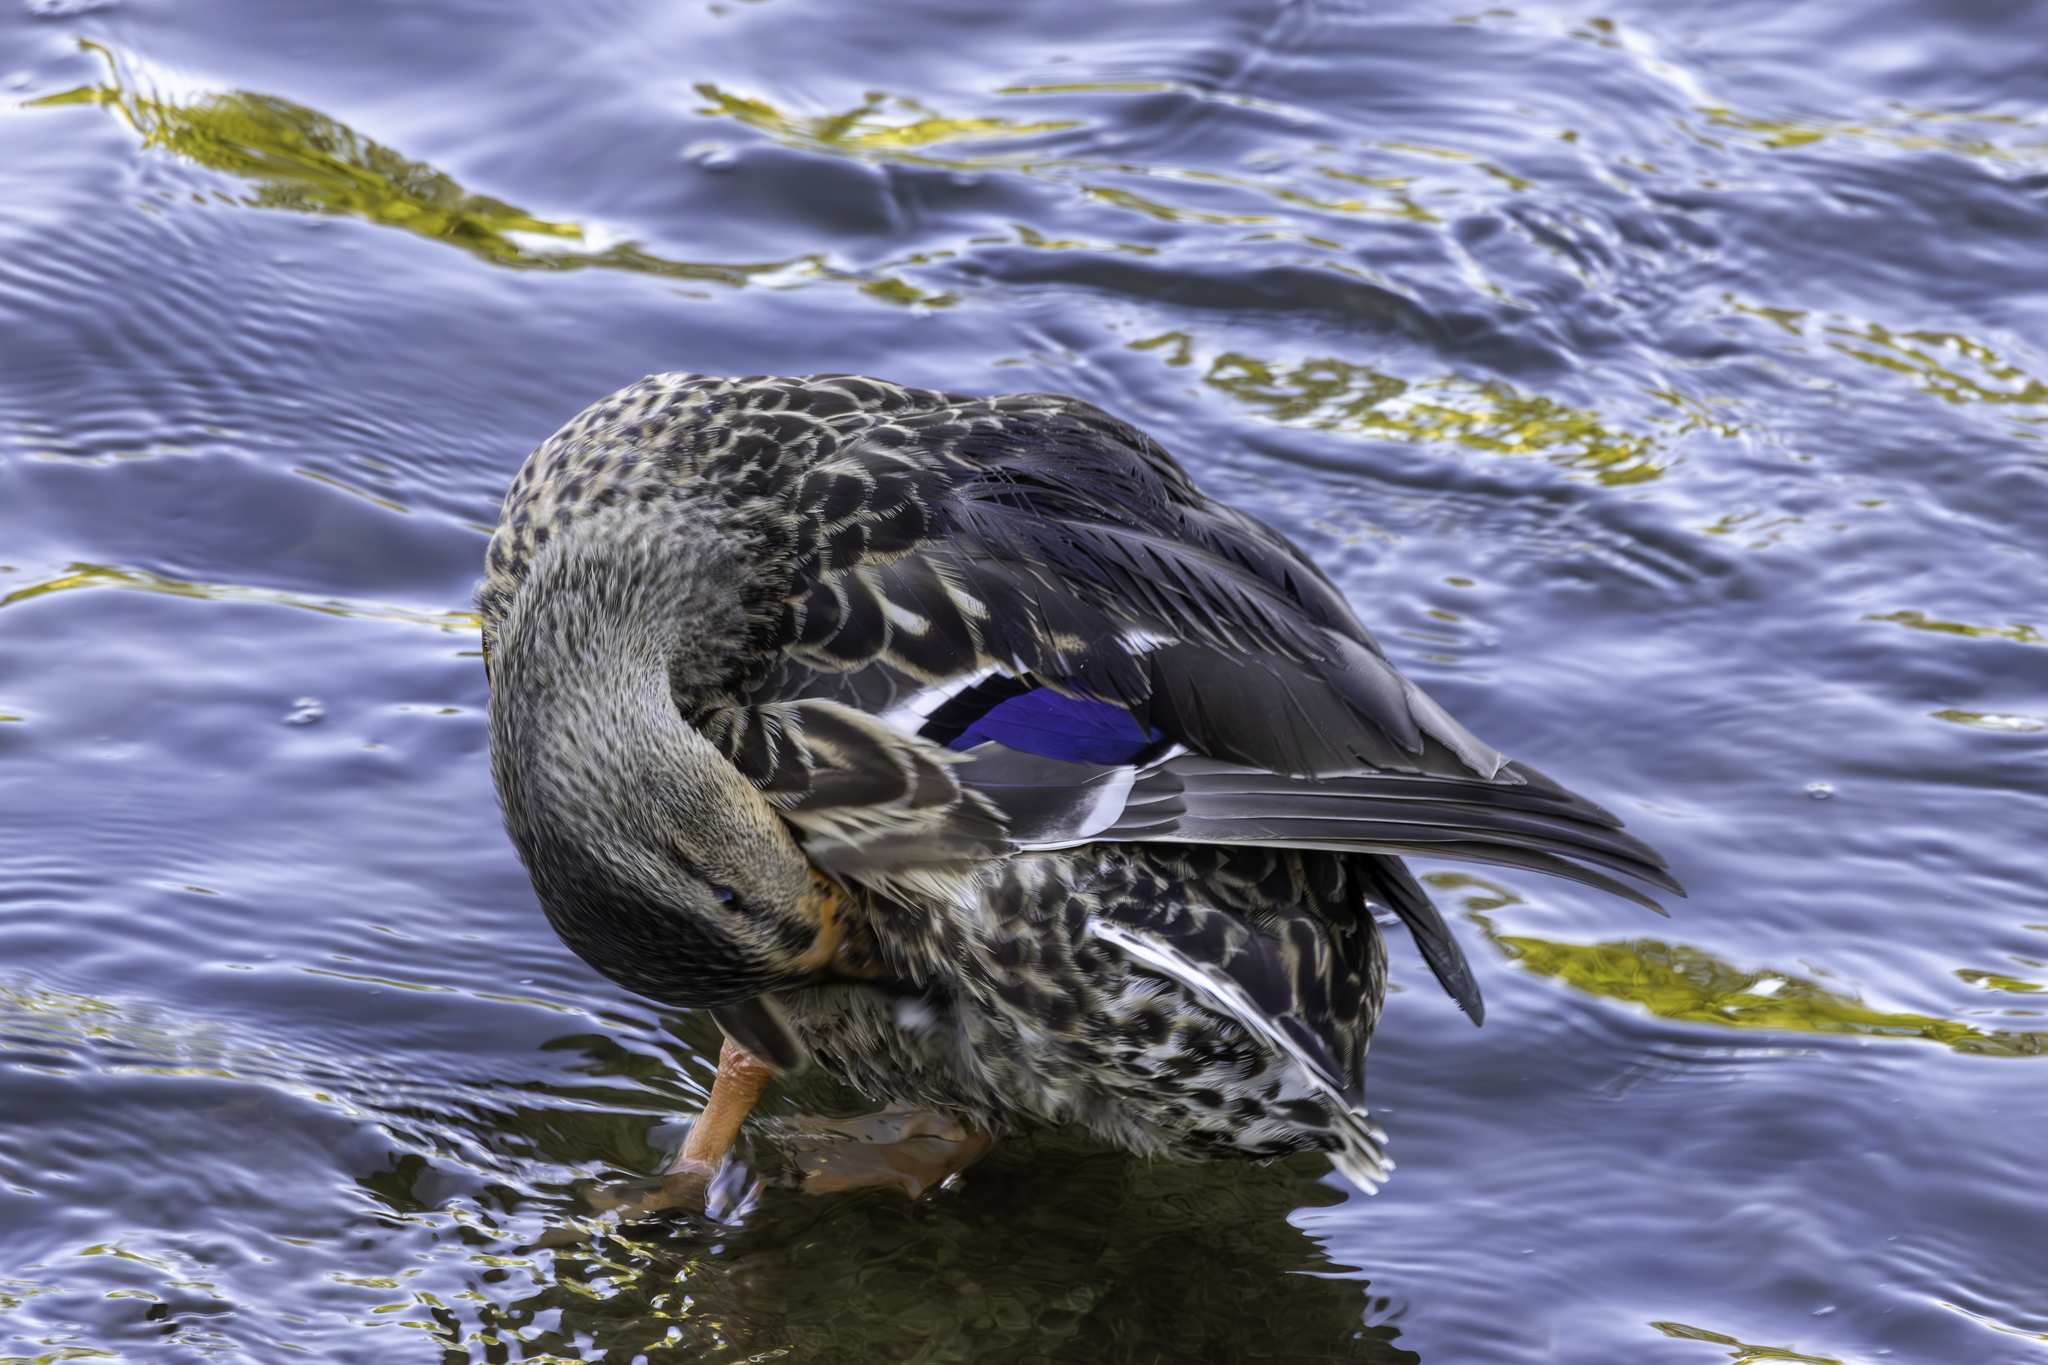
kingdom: Animalia
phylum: Chordata
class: Aves
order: Anseriformes
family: Anatidae
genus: Anas
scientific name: Anas platyrhynchos
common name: Mallard
